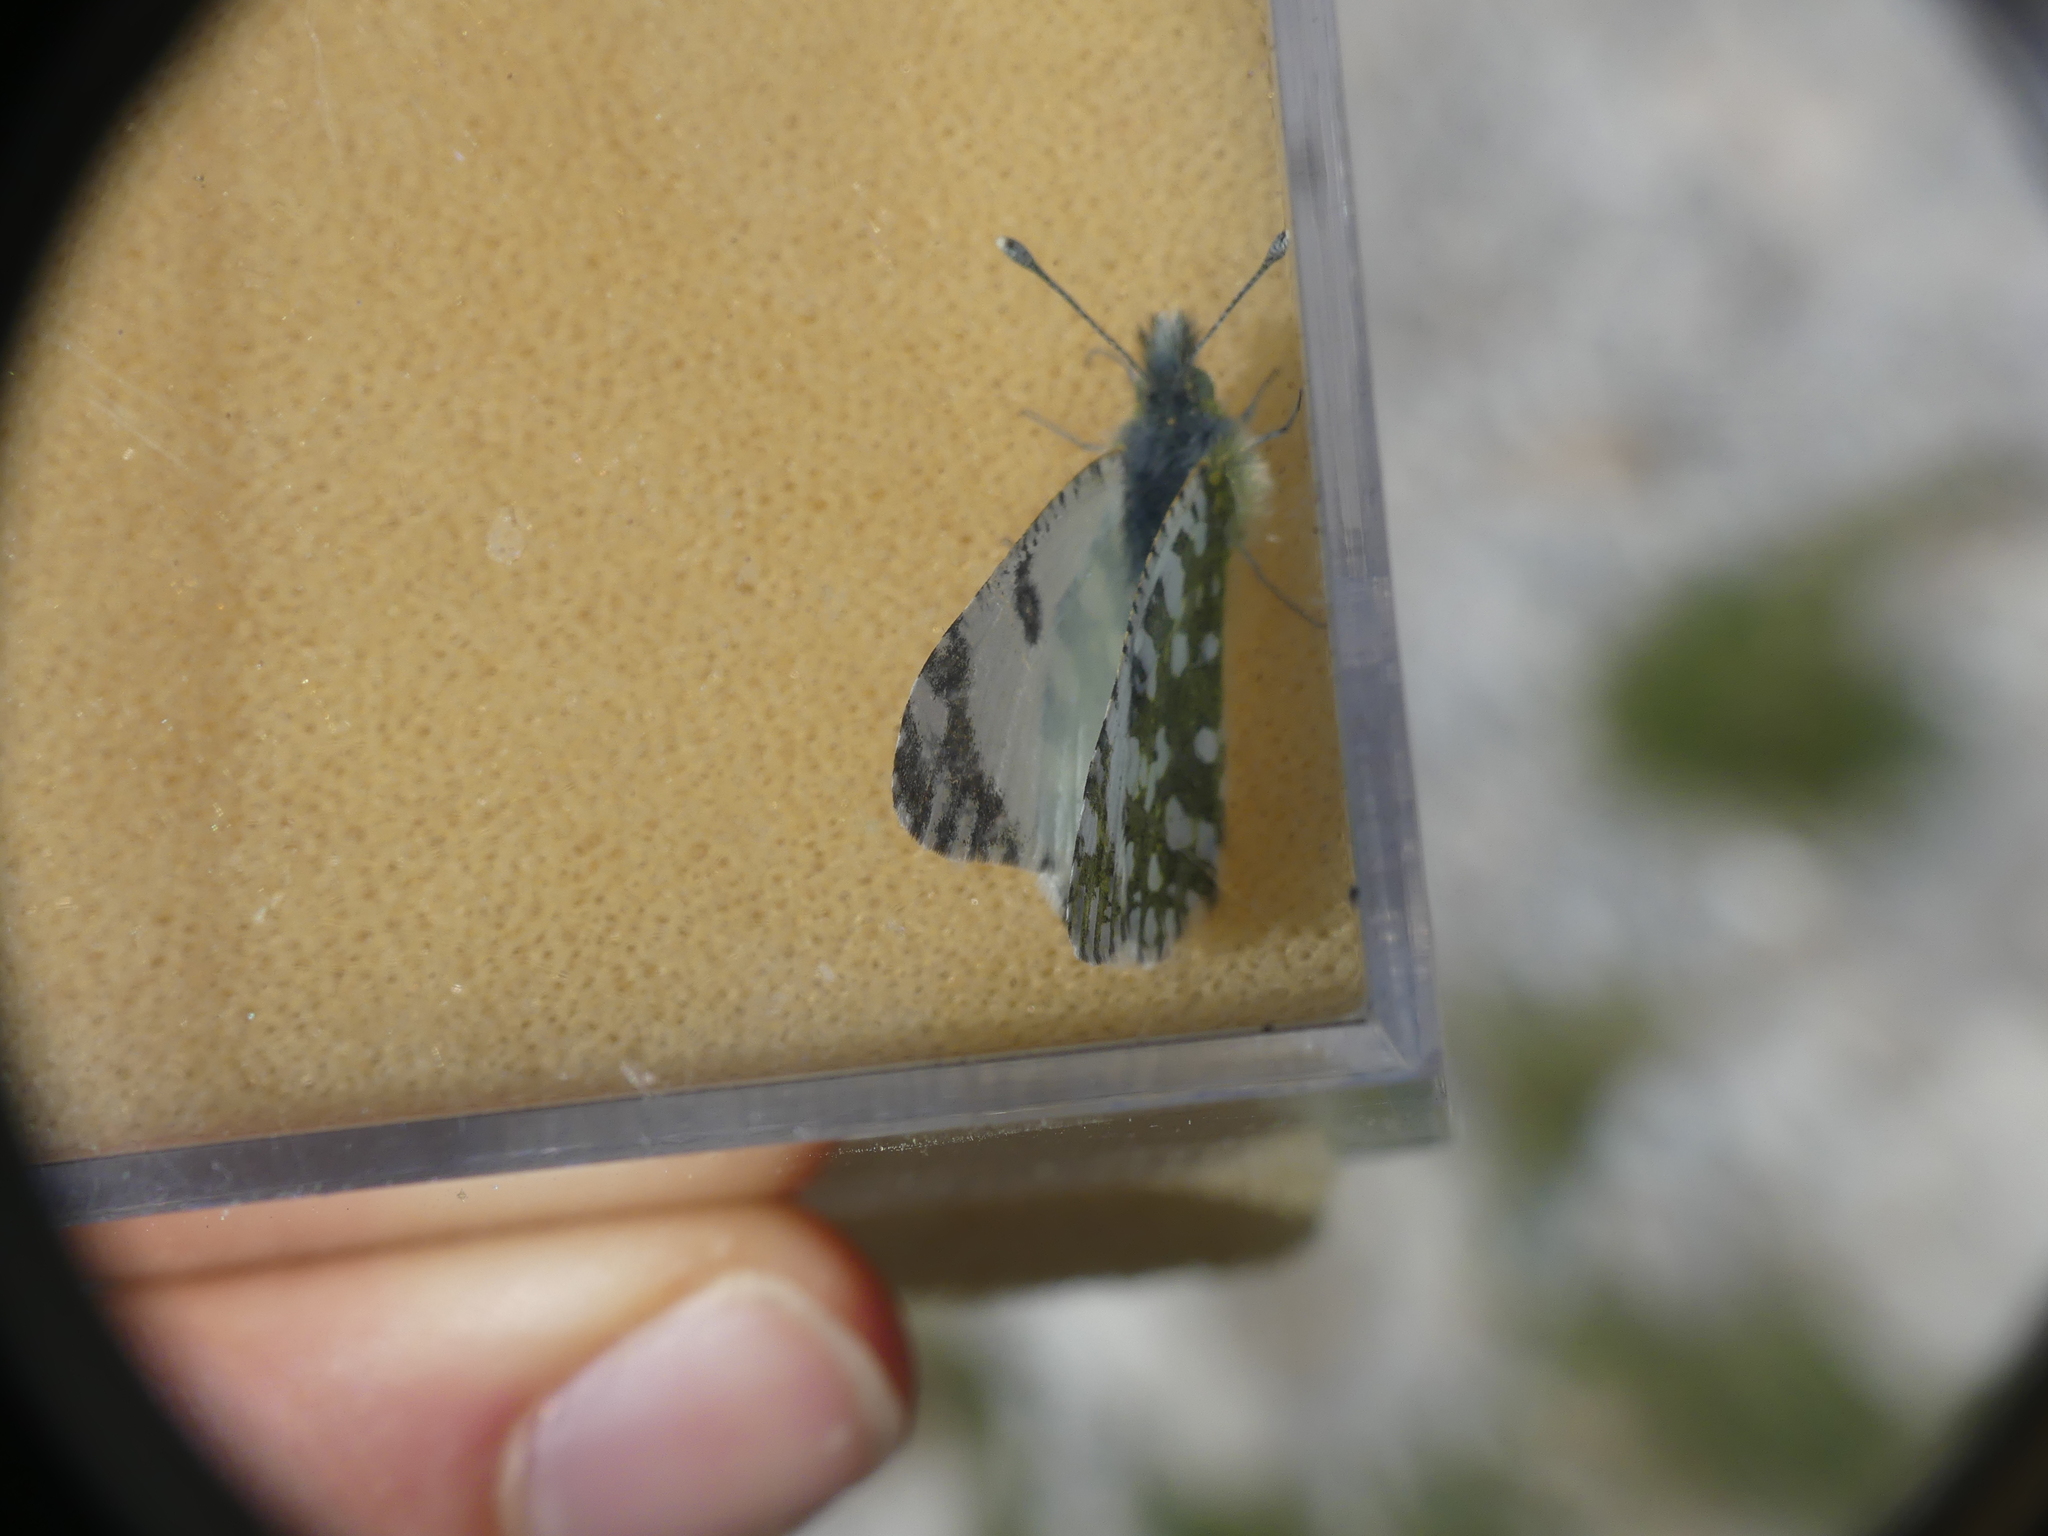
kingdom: Animalia
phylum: Arthropoda
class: Insecta
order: Lepidoptera
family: Pieridae
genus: Euchloe
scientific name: Euchloe crameri
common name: Western dappled white
